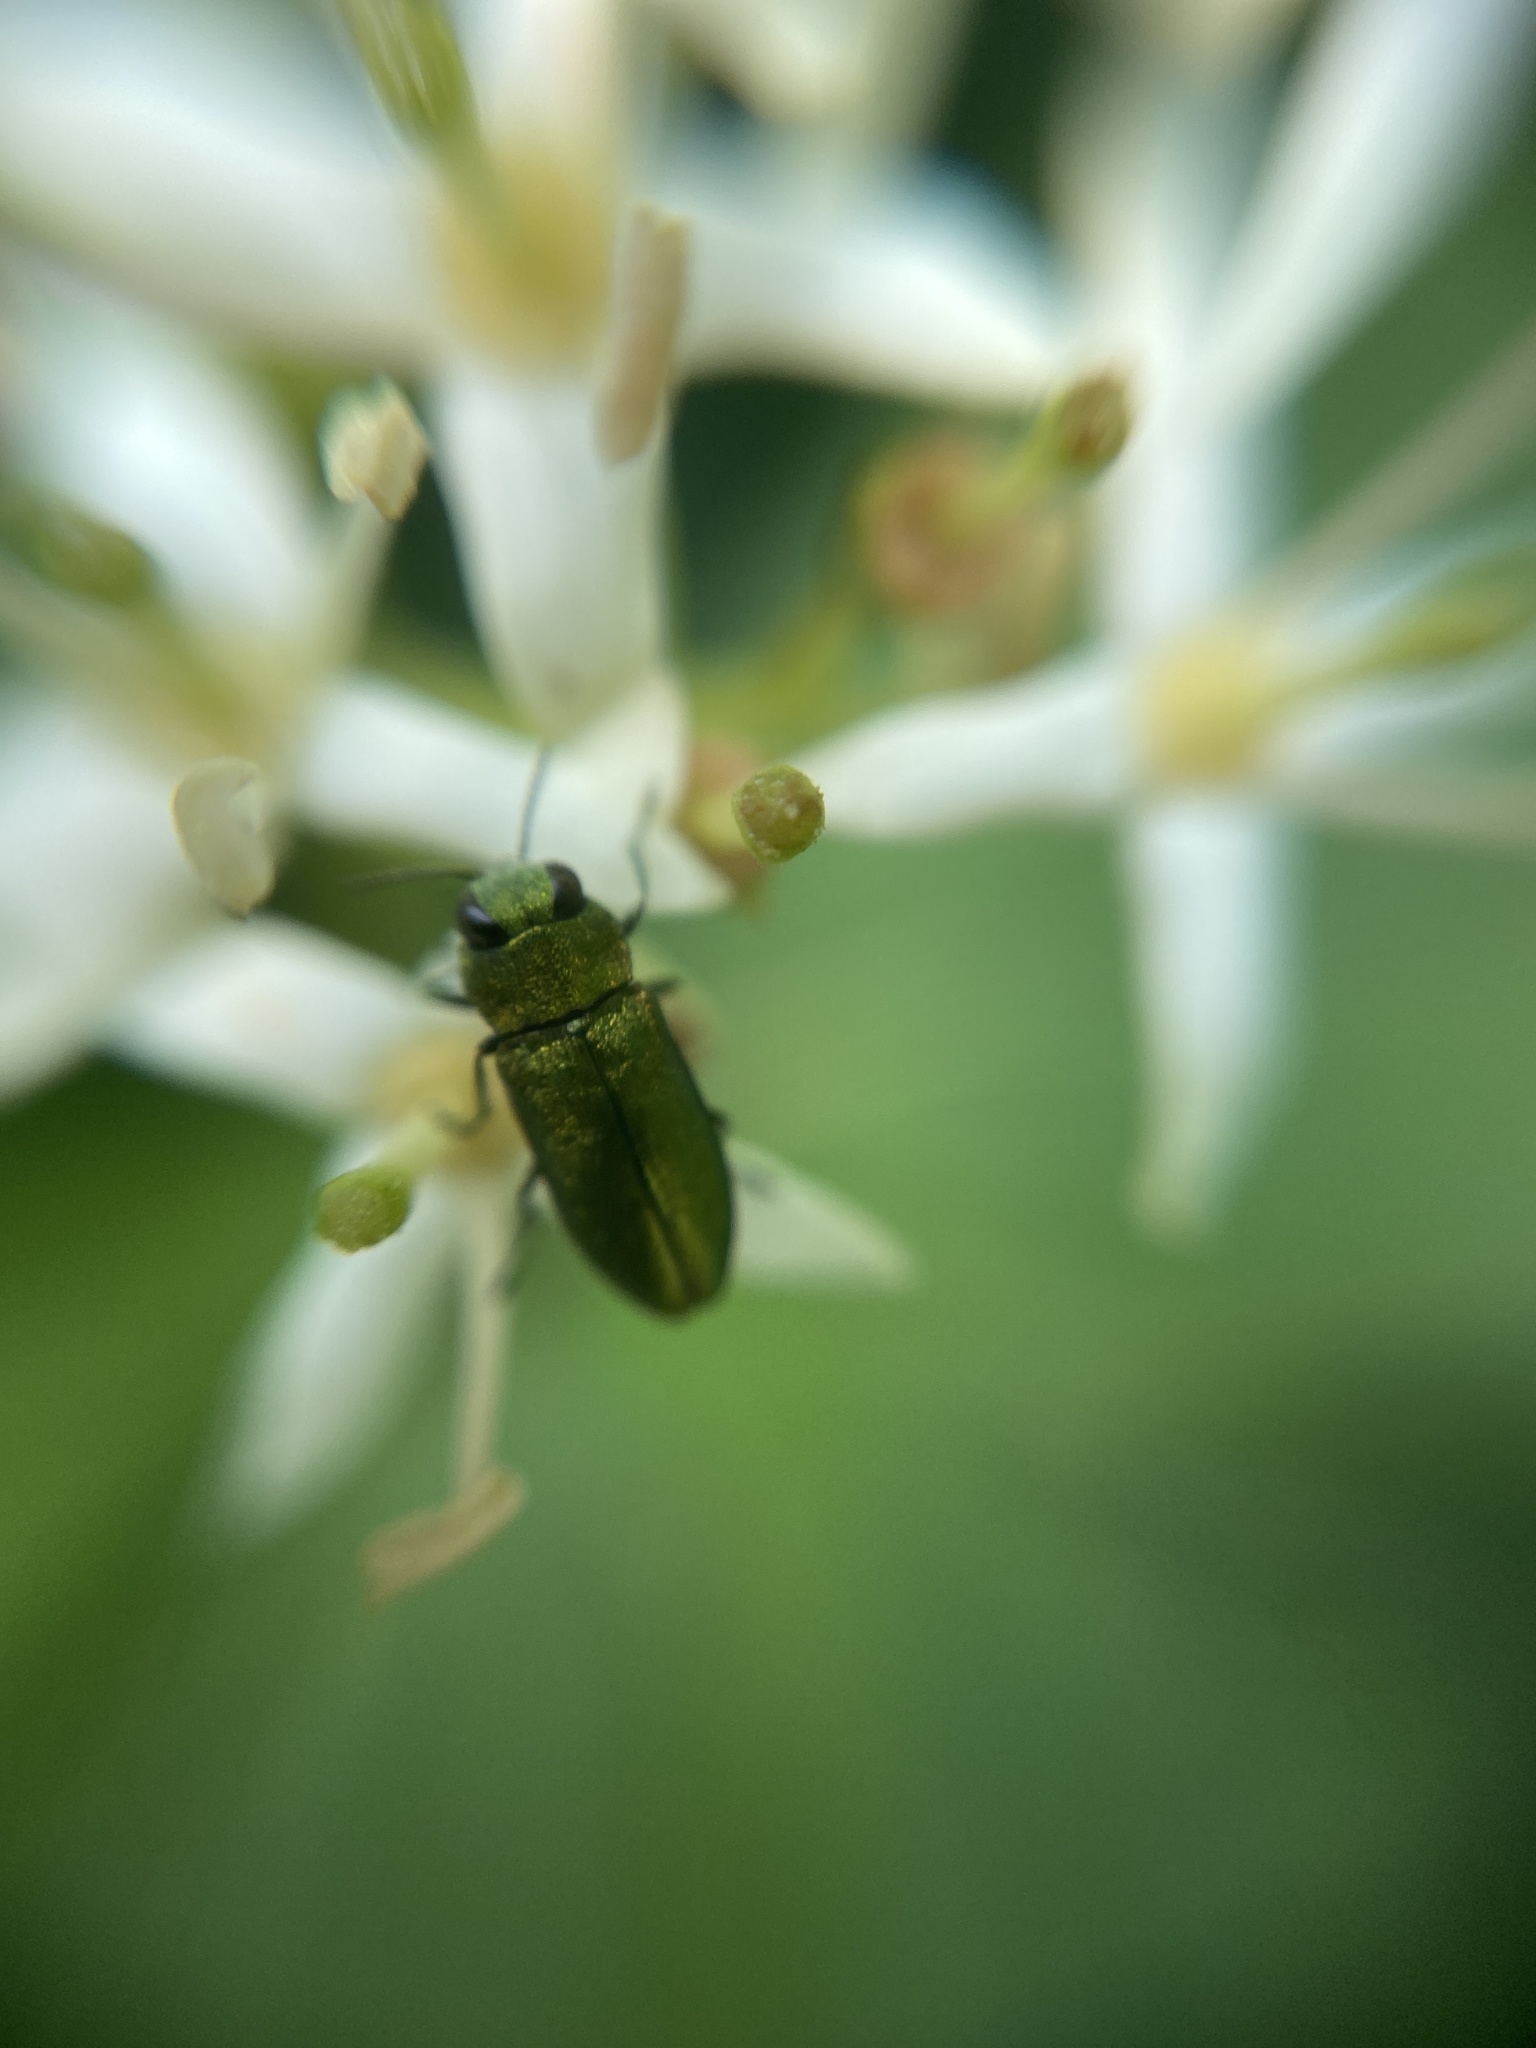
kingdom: Animalia
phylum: Arthropoda
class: Insecta
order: Coleoptera
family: Buprestidae
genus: Anthaxia
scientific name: Anthaxia nitidula
